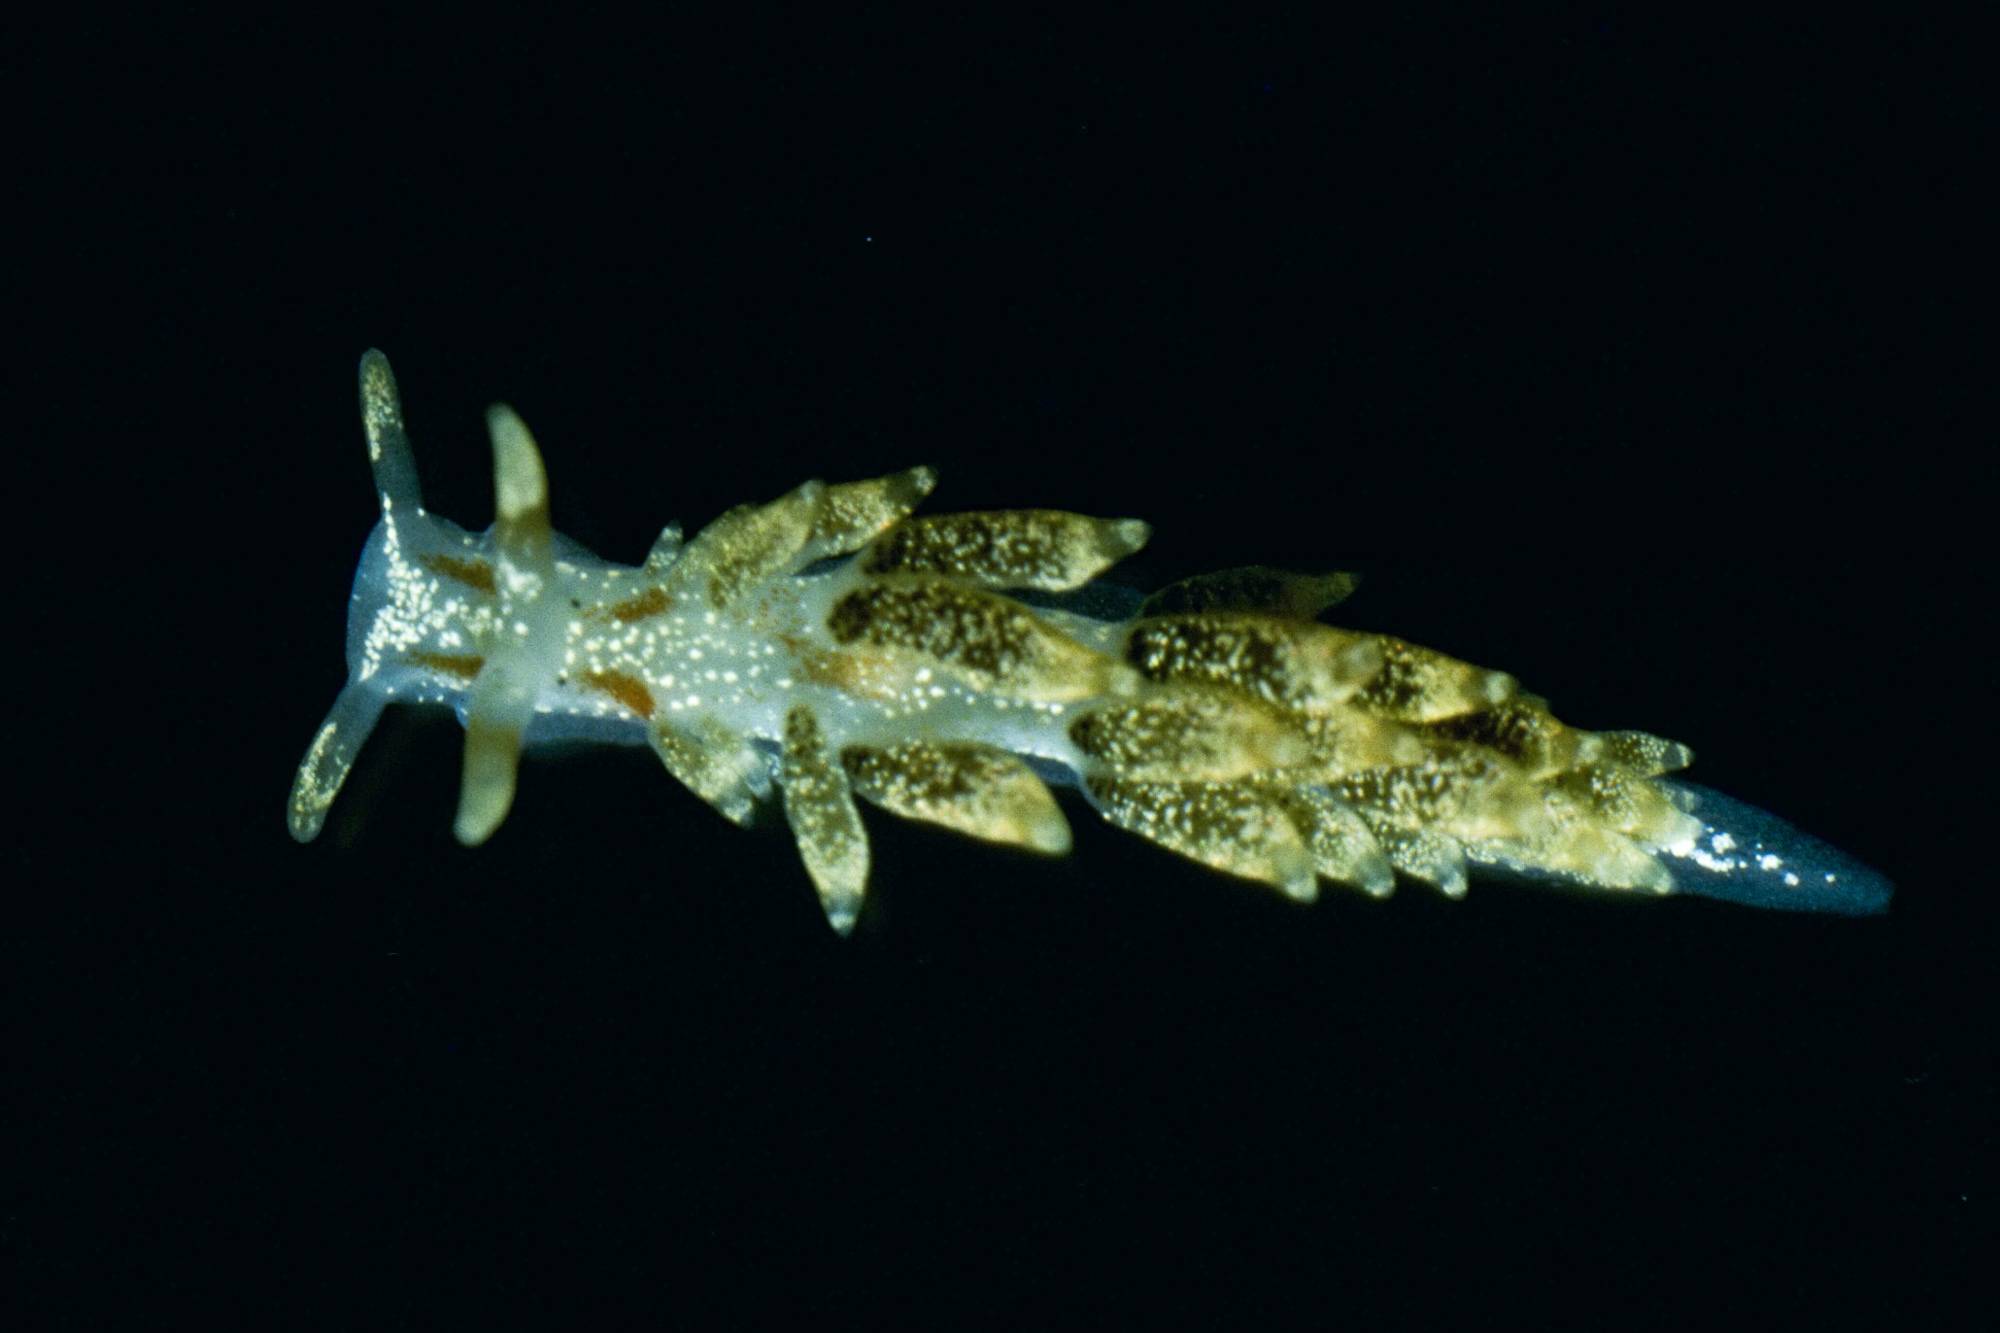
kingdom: Animalia
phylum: Mollusca
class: Gastropoda
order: Nudibranchia
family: Trinchesiidae
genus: Trinchesia
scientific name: Trinchesia foliata
